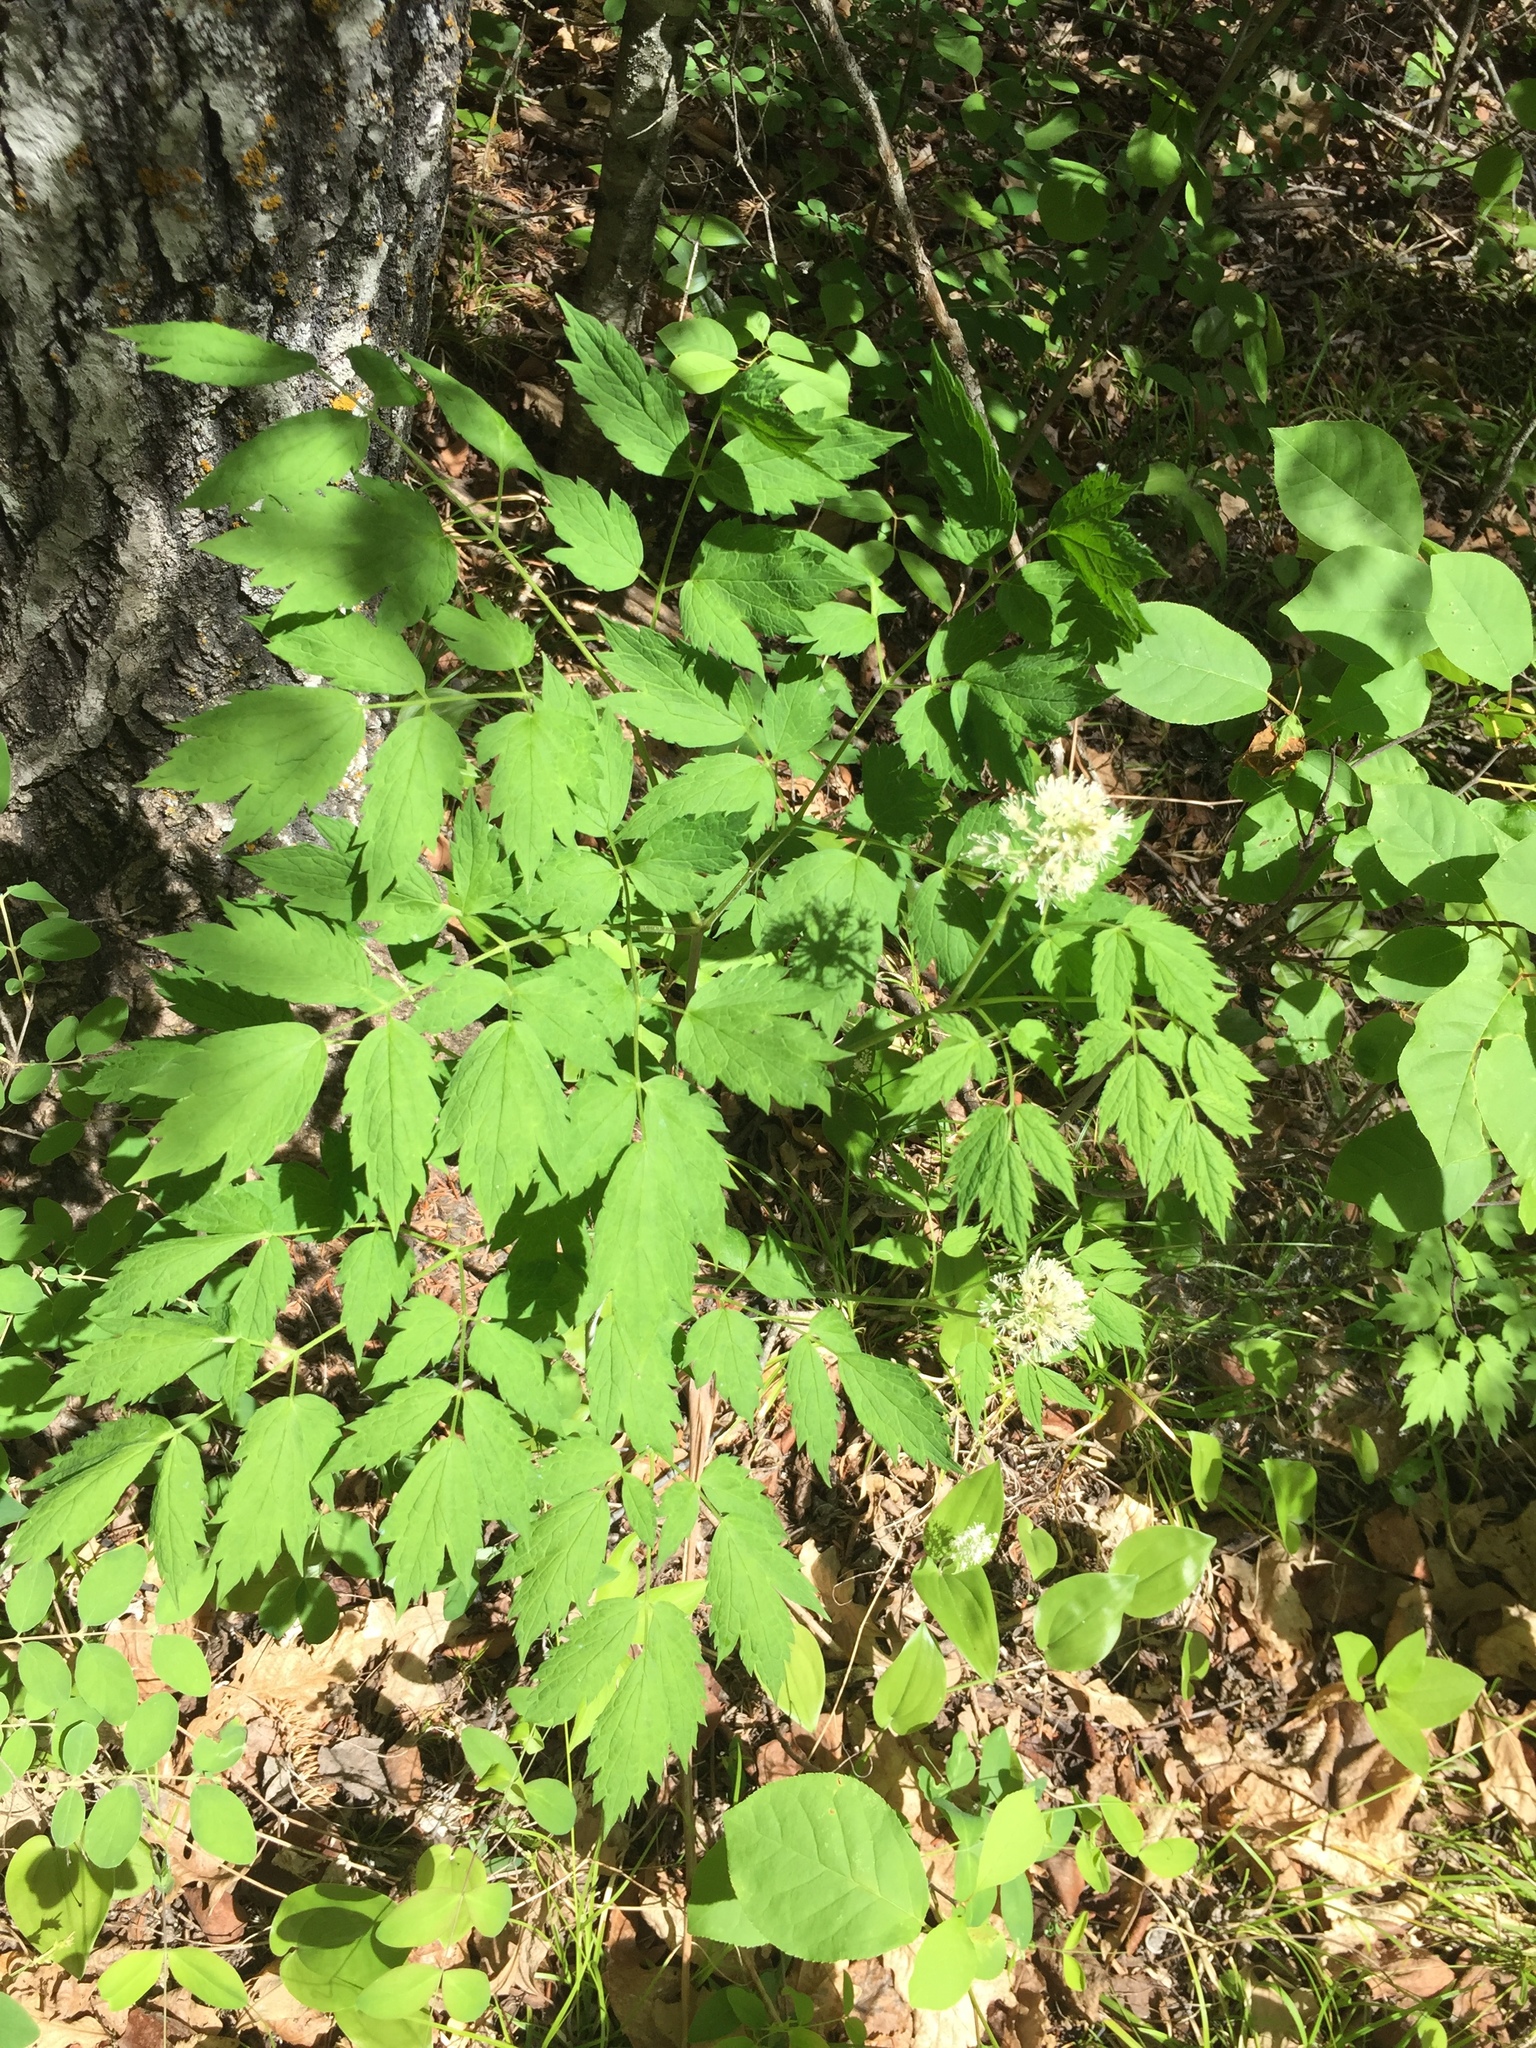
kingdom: Plantae
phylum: Tracheophyta
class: Magnoliopsida
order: Ranunculales
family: Ranunculaceae
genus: Actaea
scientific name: Actaea rubra
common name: Red baneberry
